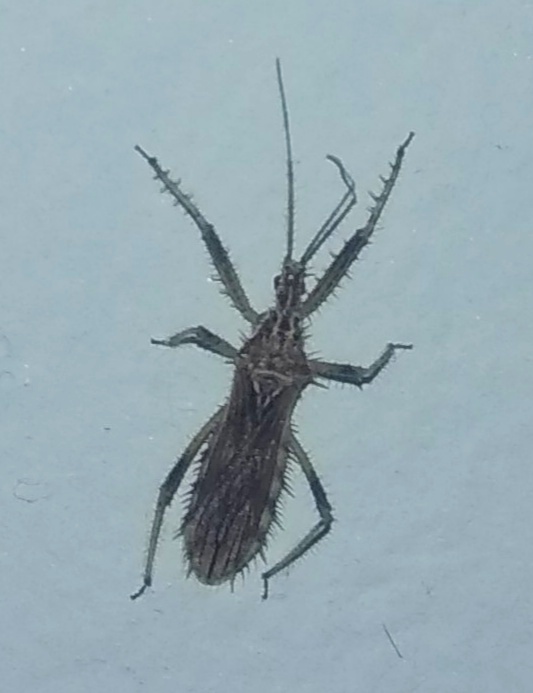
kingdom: Animalia
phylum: Arthropoda
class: Insecta
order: Hemiptera
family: Reduviidae
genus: Polididus
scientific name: Polididus armatissimus
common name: Assassin bug
